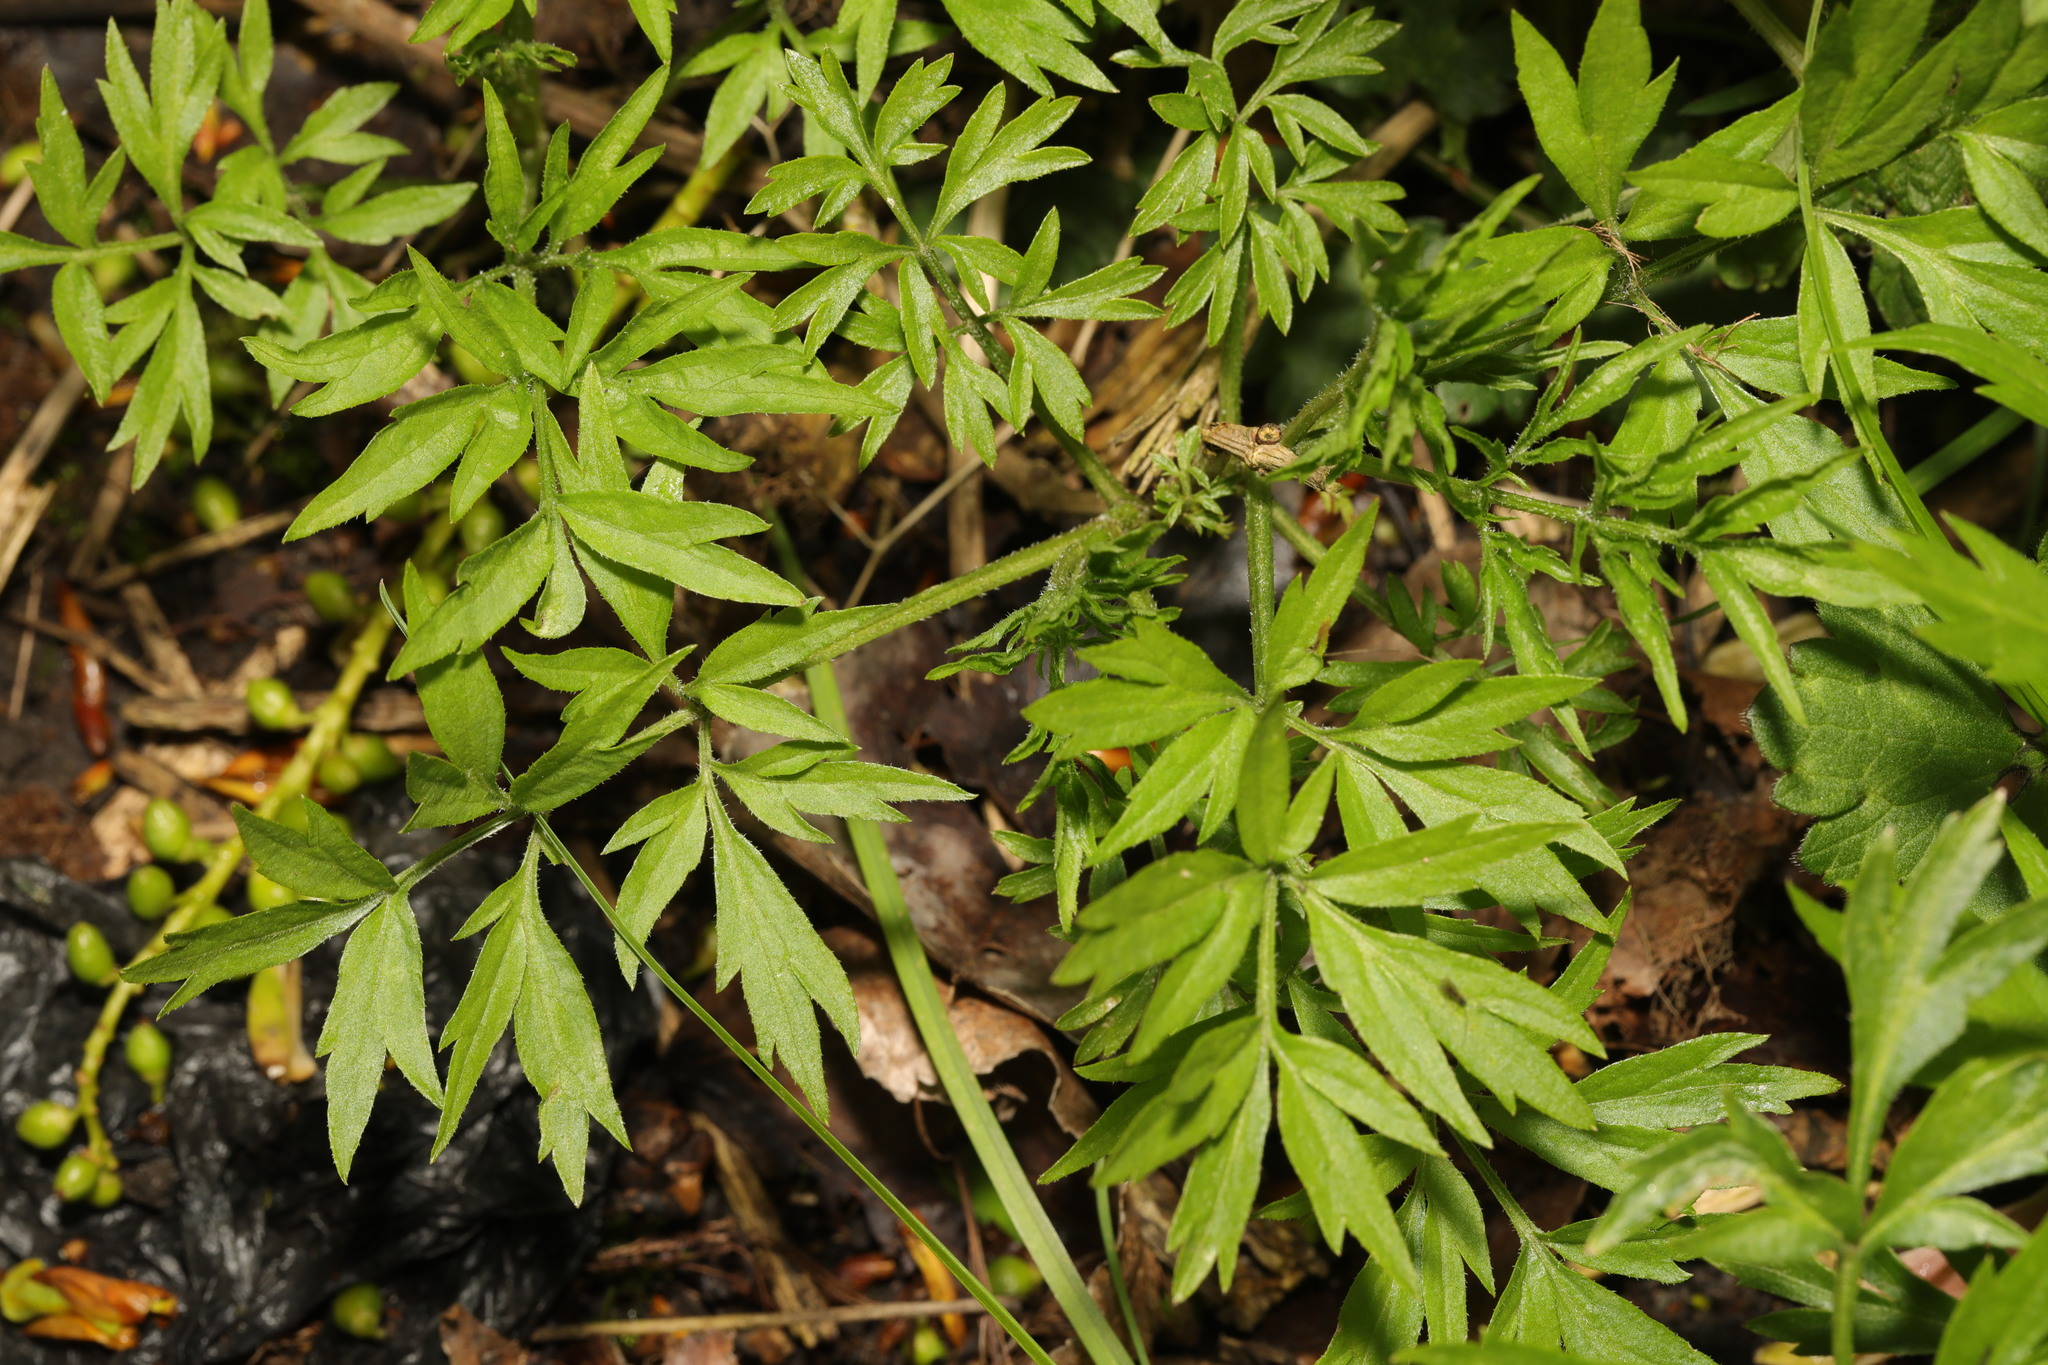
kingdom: Plantae
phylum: Tracheophyta
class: Magnoliopsida
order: Dipsacales
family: Viburnaceae
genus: Sambucus
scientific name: Sambucus nigra
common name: Elder
